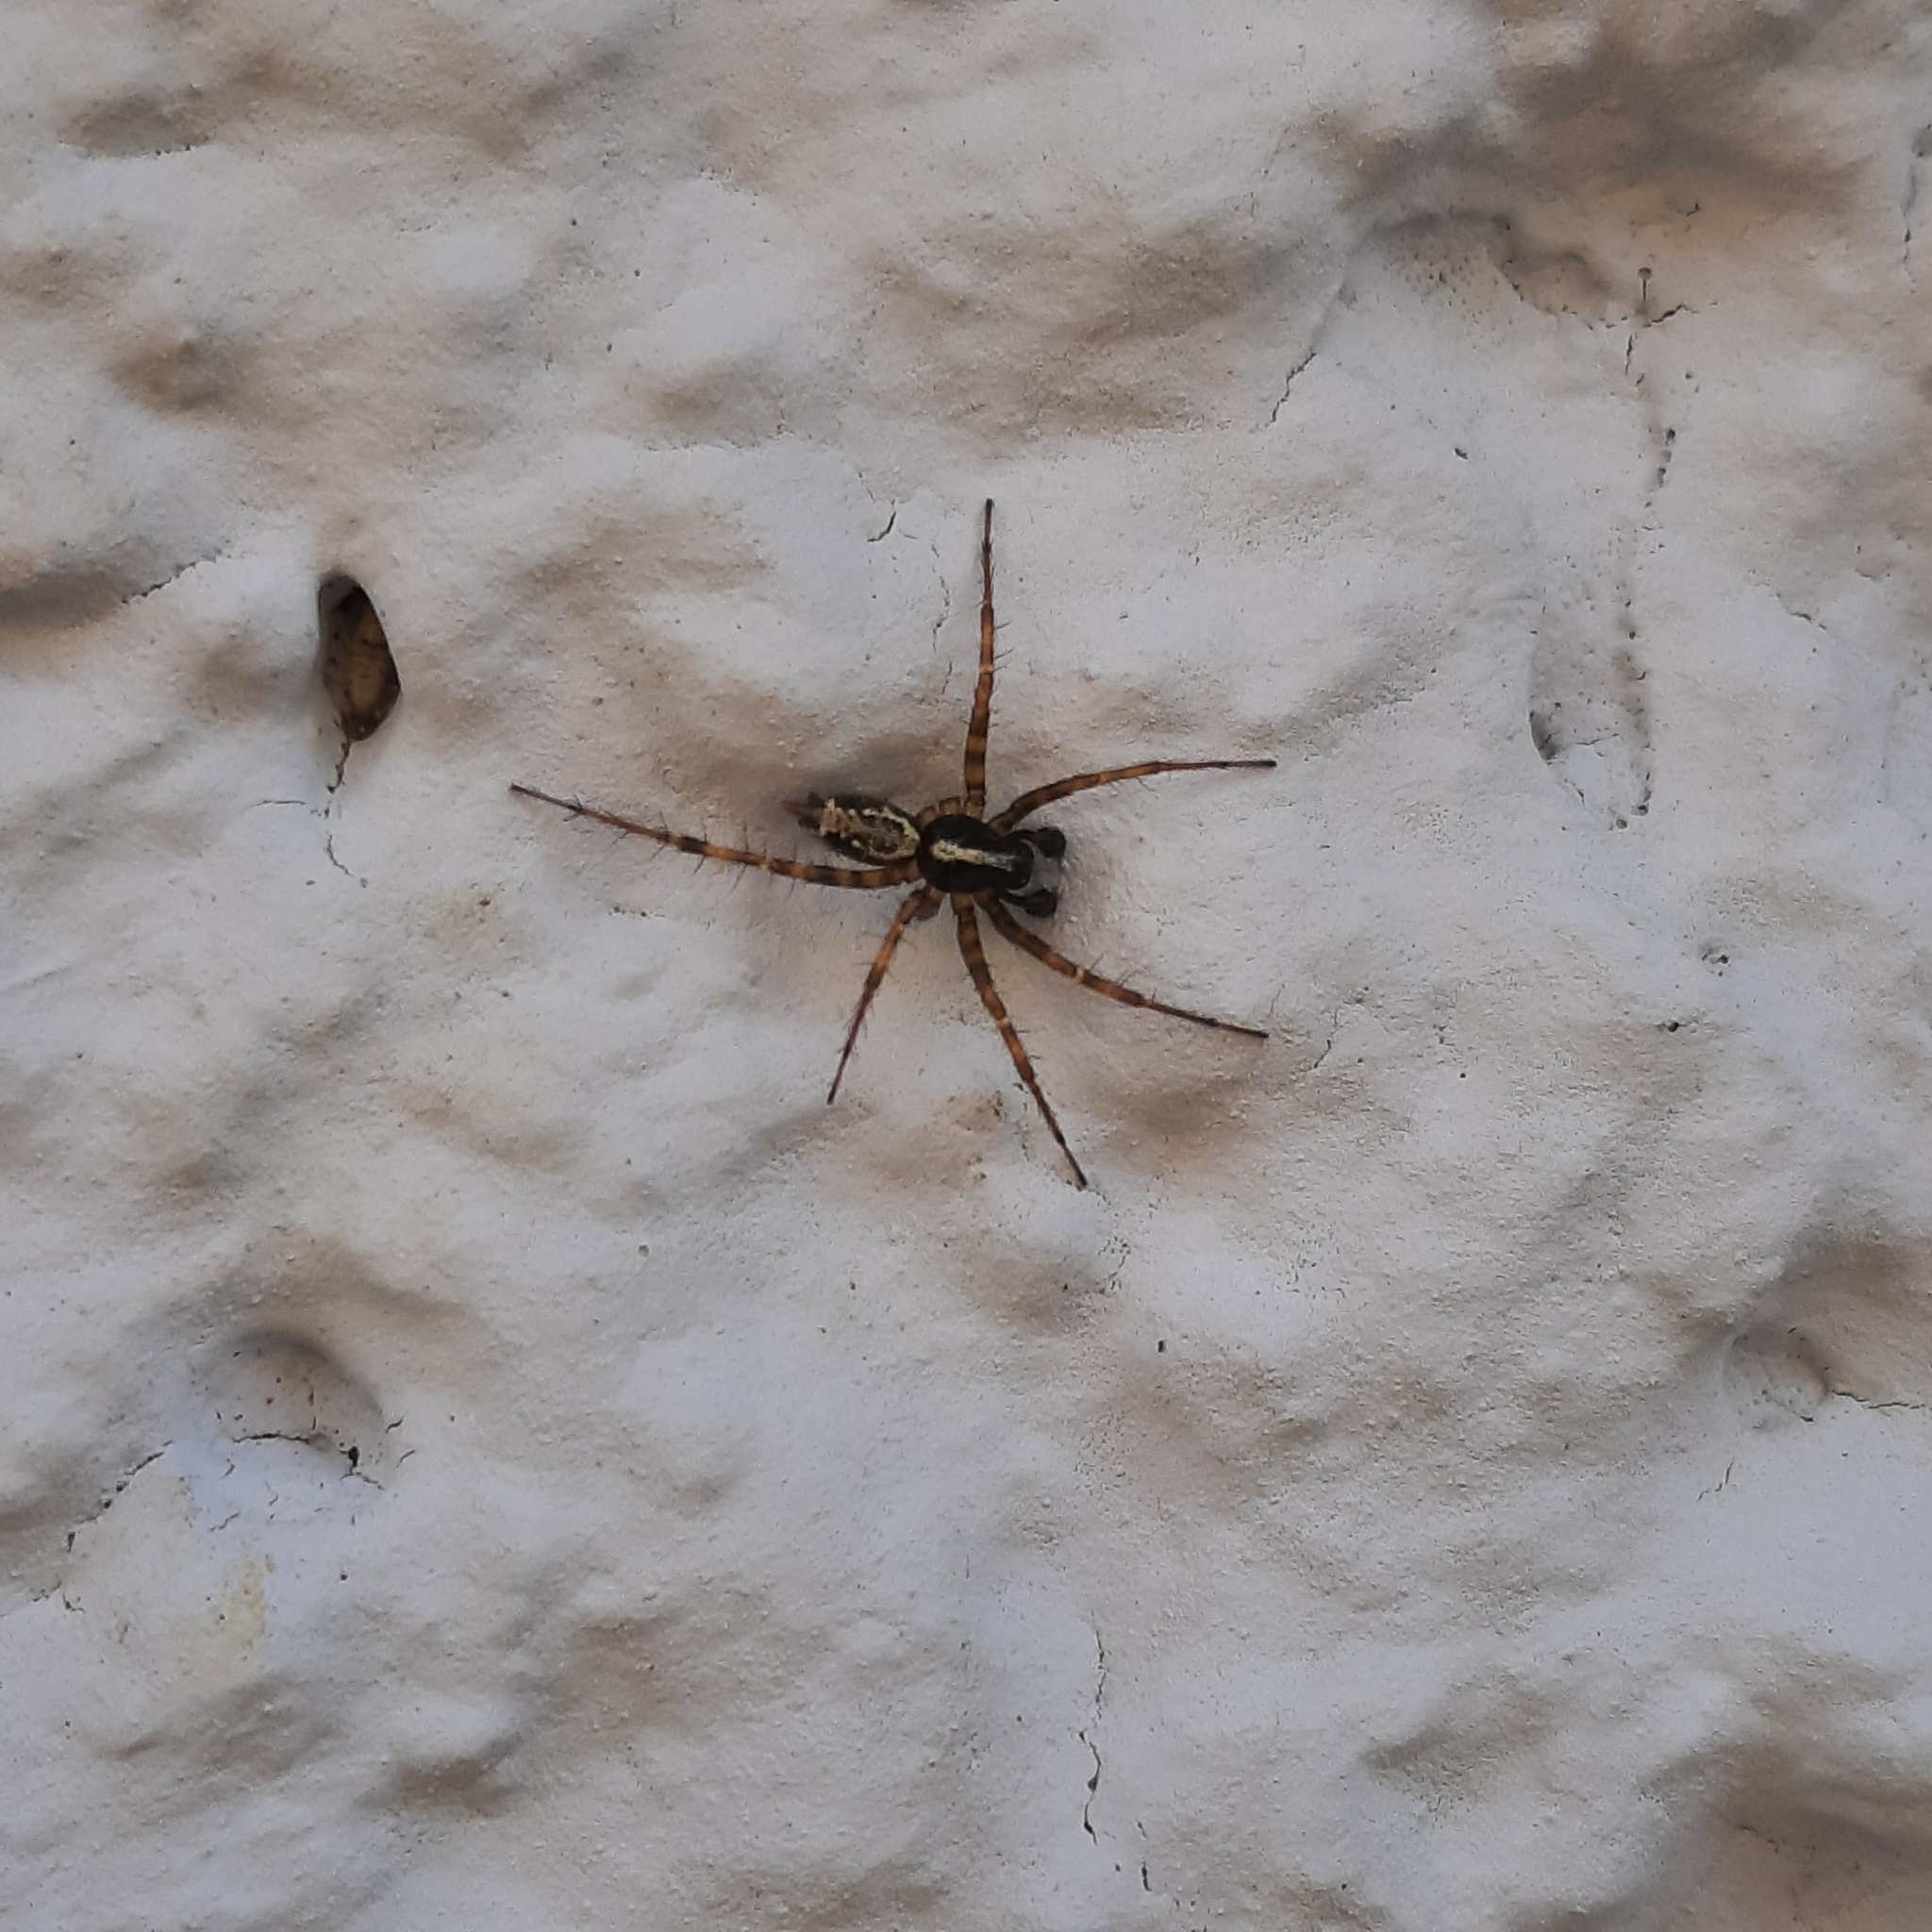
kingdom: Animalia
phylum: Arthropoda
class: Arachnida
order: Araneae
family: Agelenidae
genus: Textrix
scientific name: Textrix denticulata
